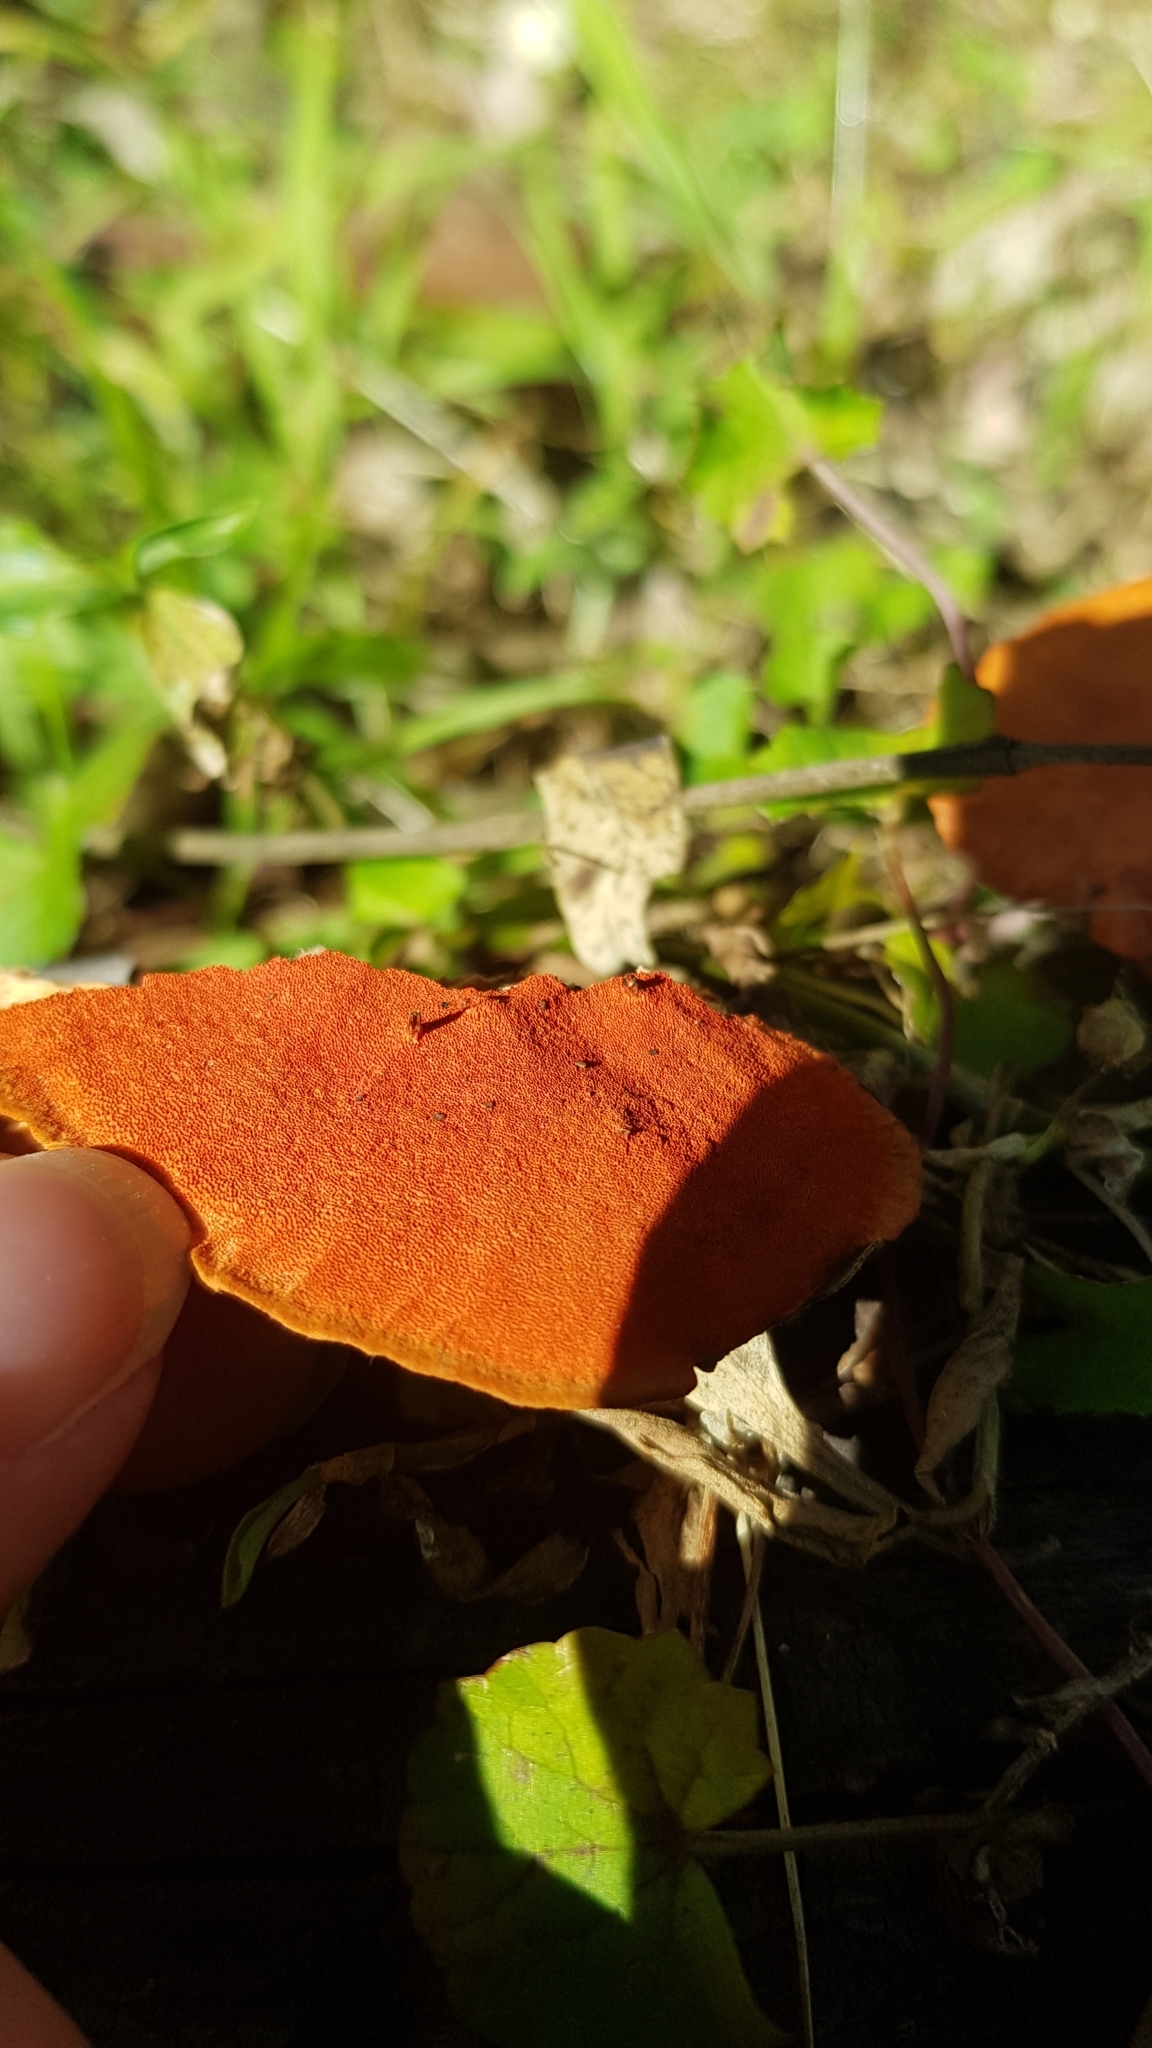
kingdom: Fungi
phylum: Basidiomycota
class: Agaricomycetes
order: Polyporales
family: Polyporaceae
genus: Trametes
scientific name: Trametes coccinea
